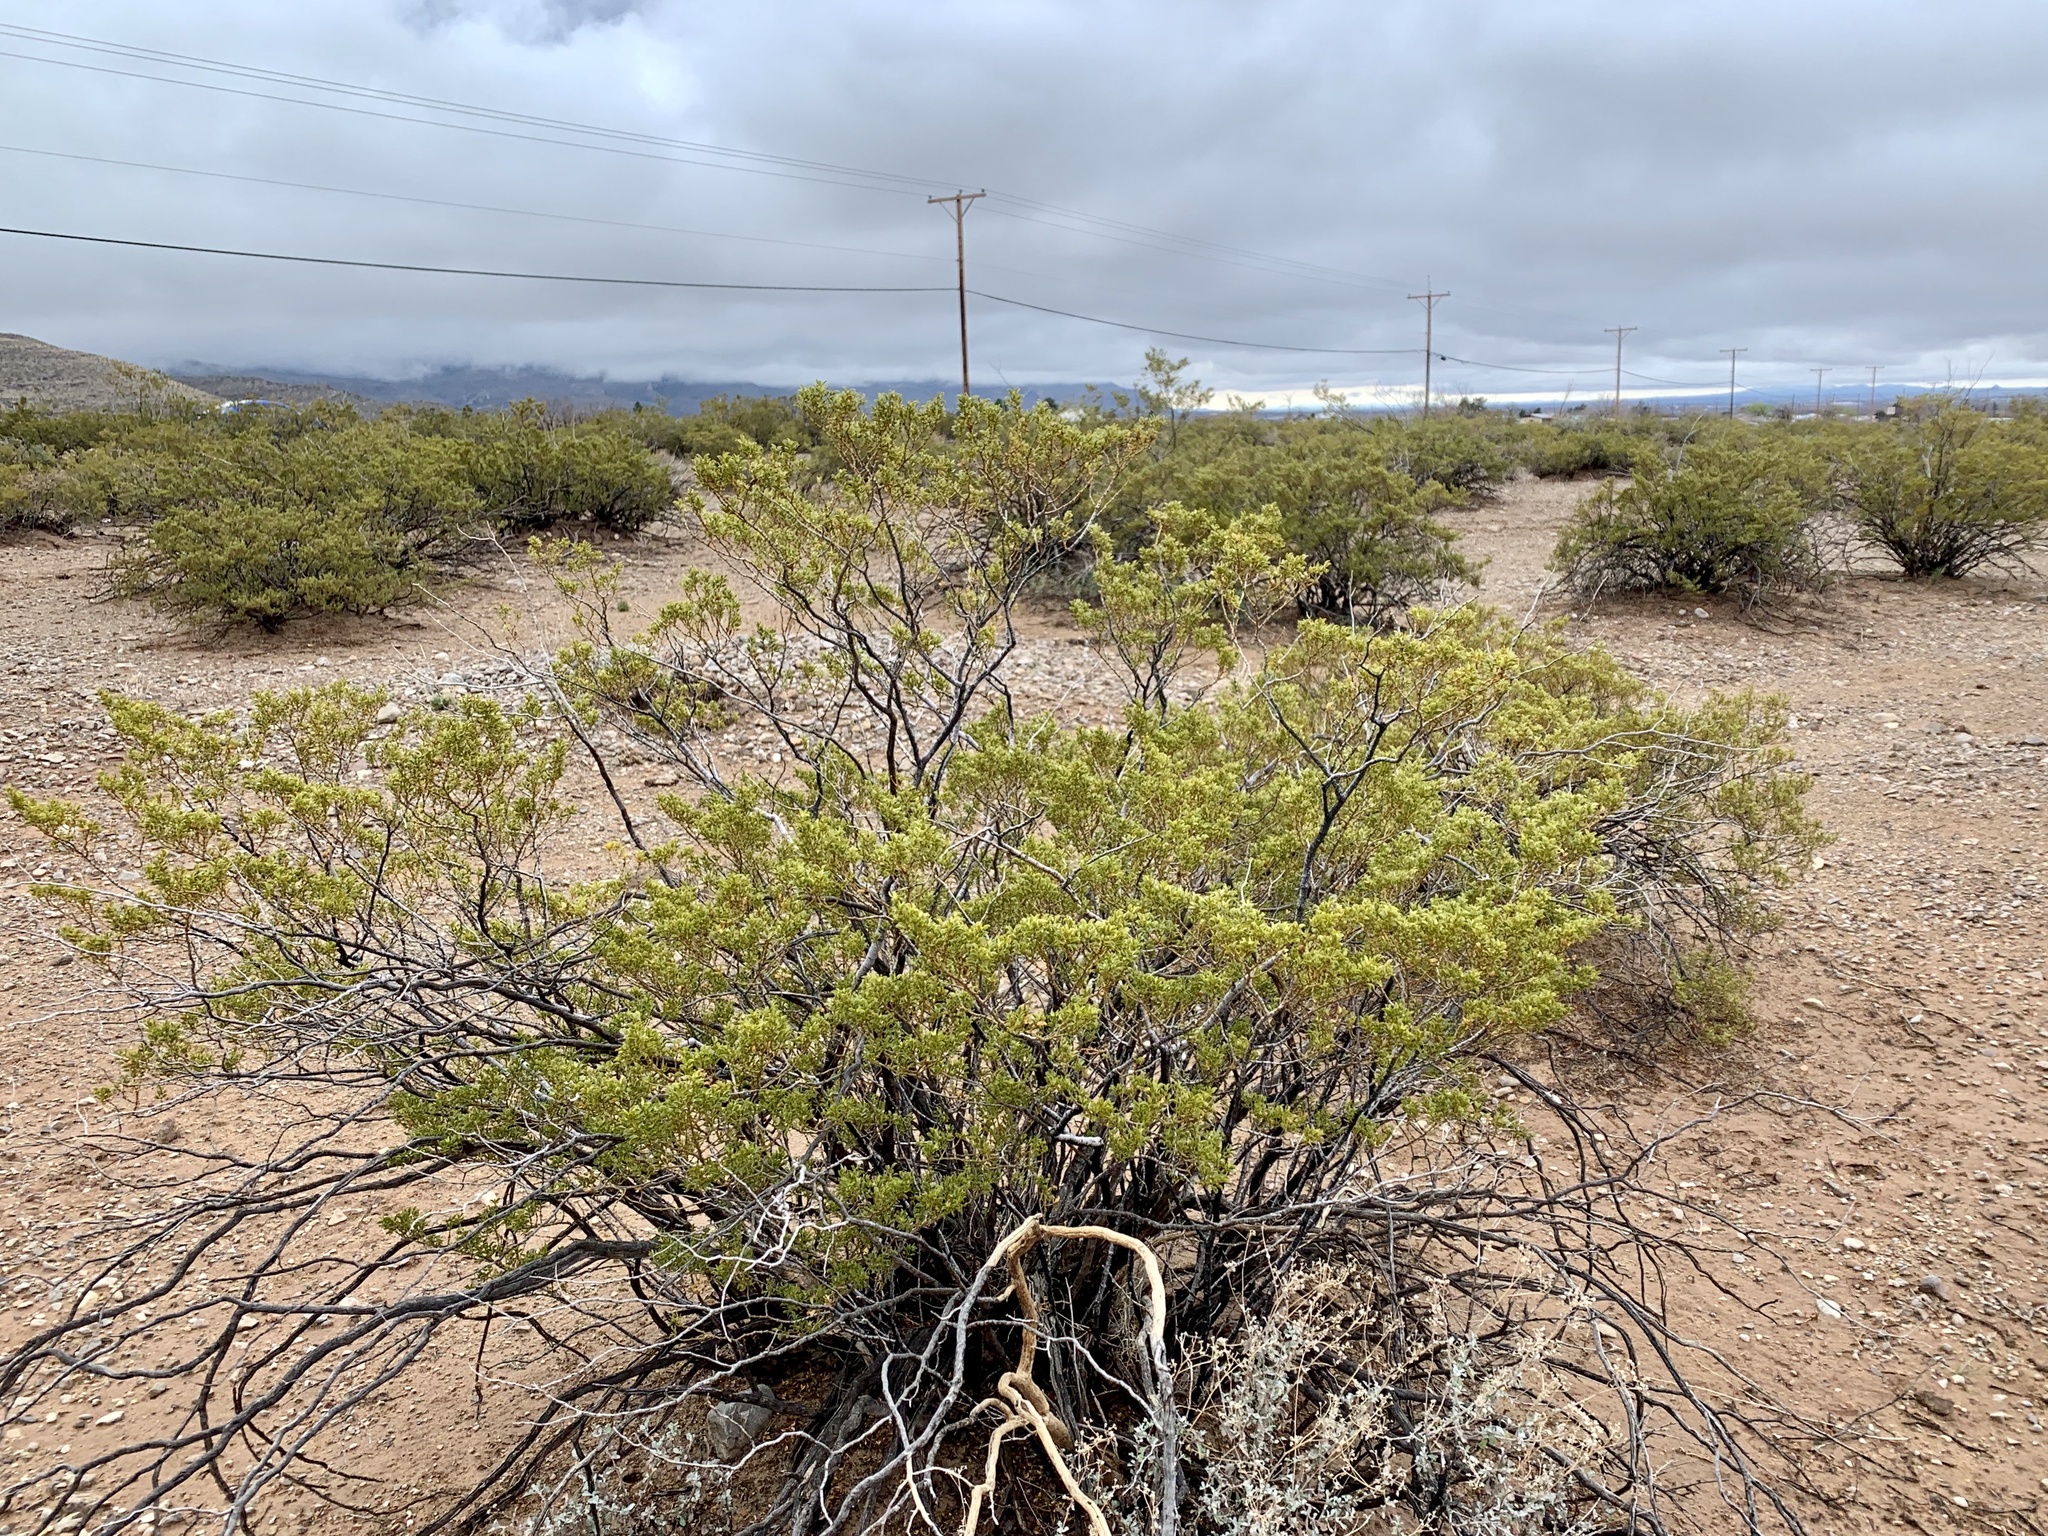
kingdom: Plantae
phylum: Tracheophyta
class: Magnoliopsida
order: Zygophyllales
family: Zygophyllaceae
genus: Larrea
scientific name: Larrea tridentata
